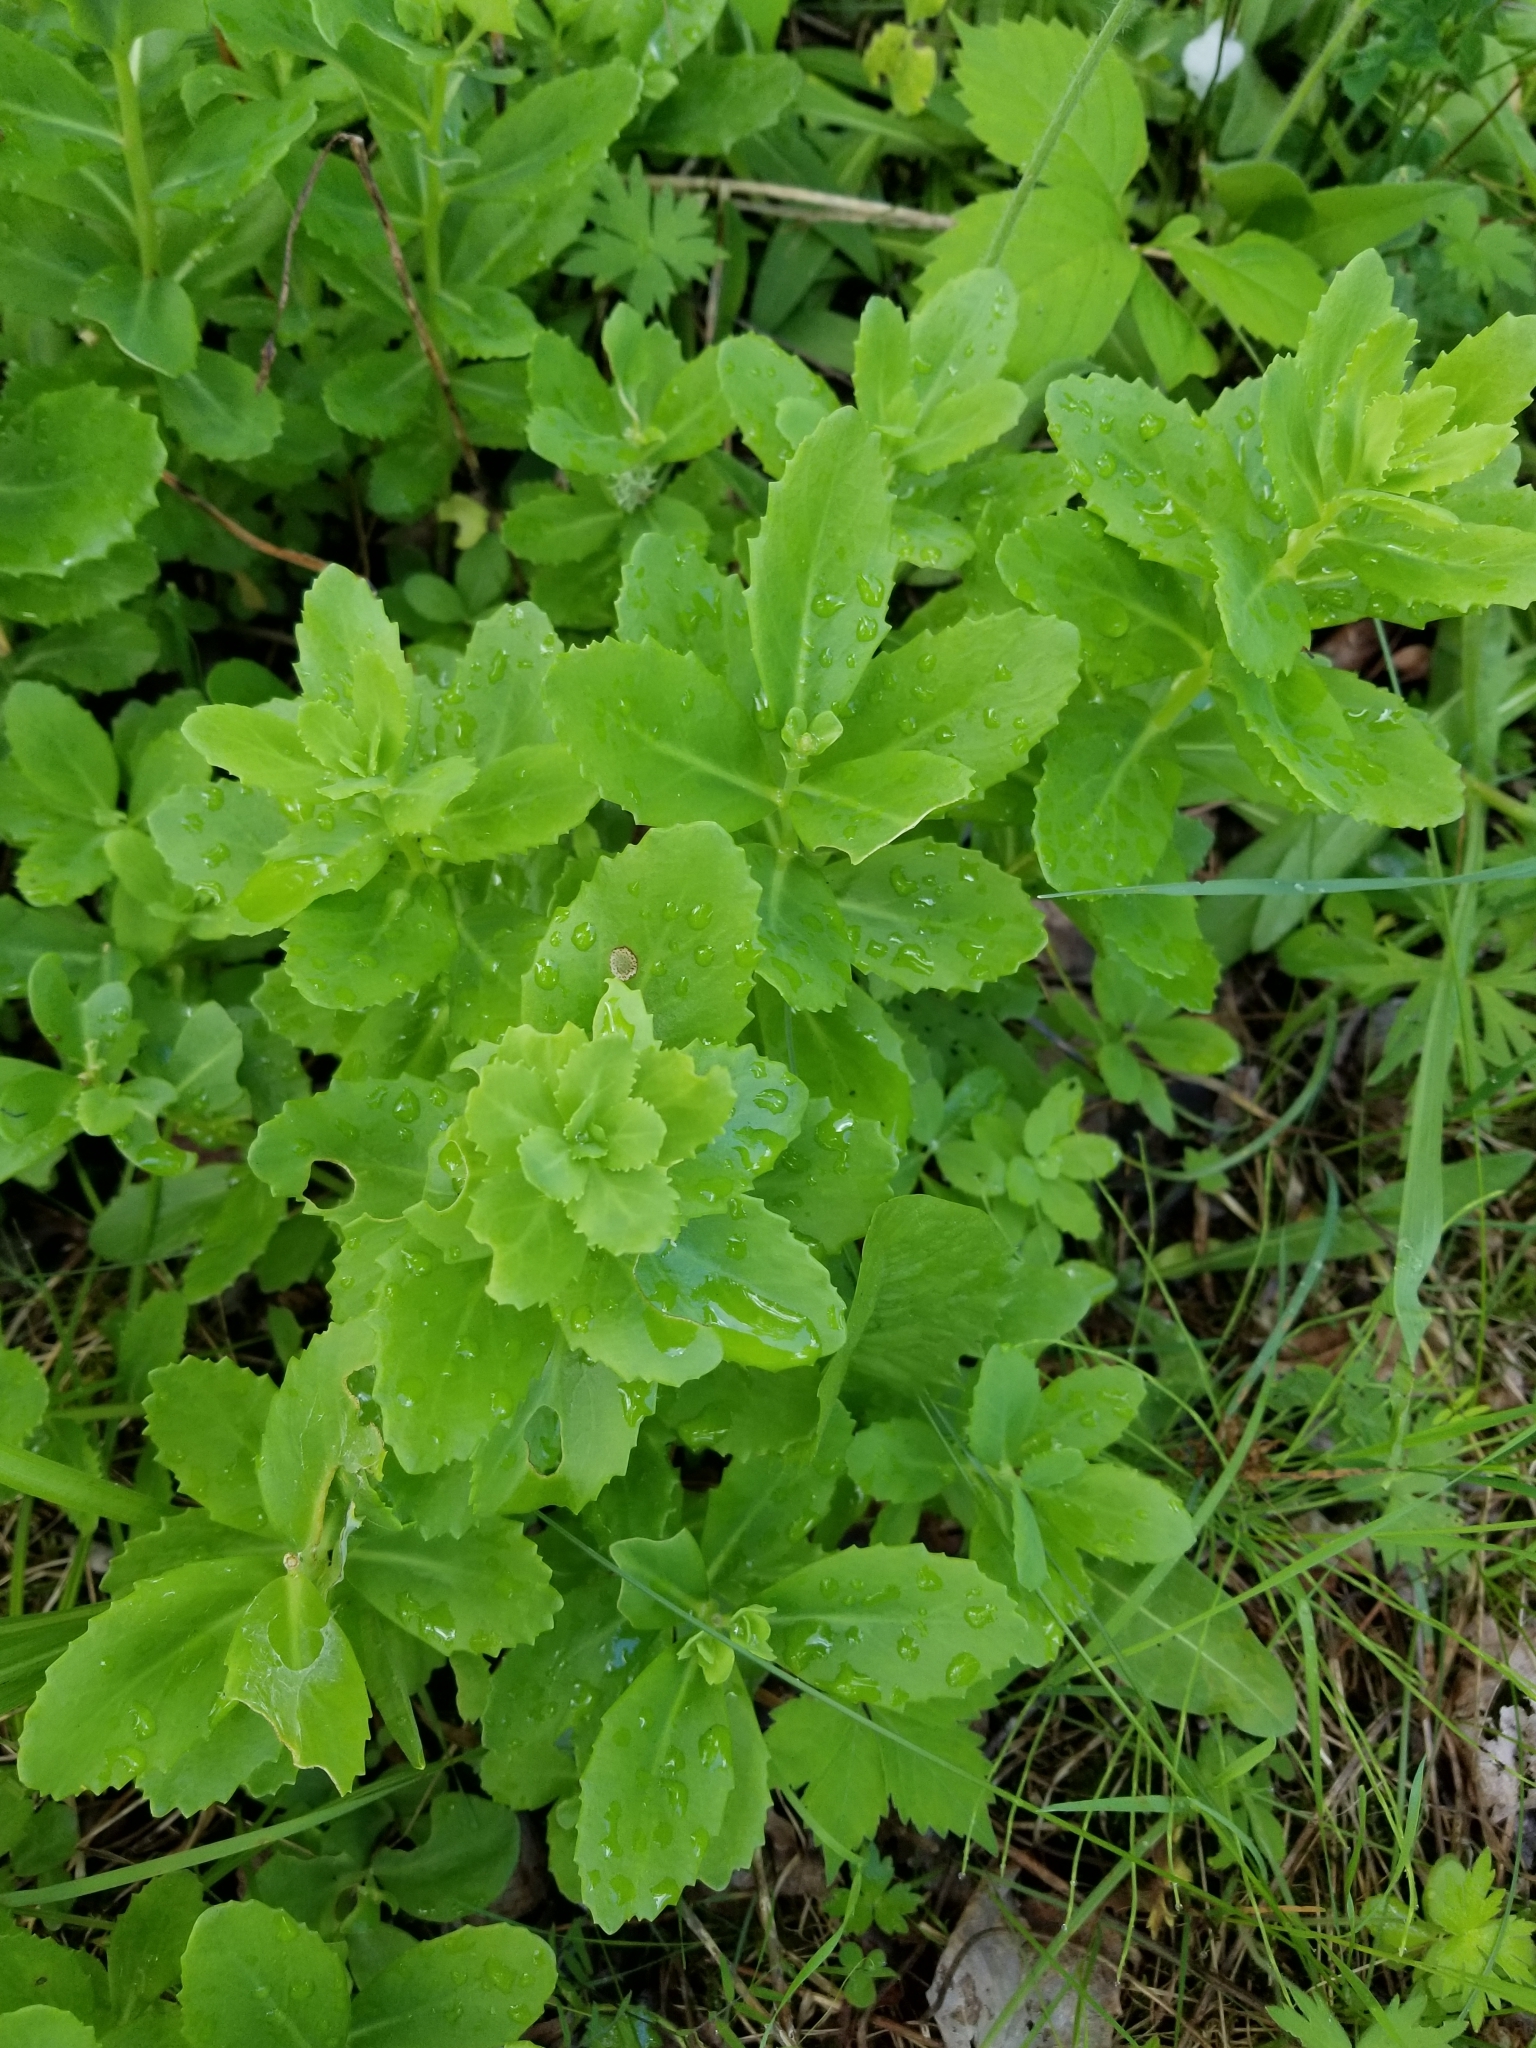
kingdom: Plantae
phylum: Tracheophyta
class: Magnoliopsida
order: Saxifragales
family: Crassulaceae
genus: Hylotelephium
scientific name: Hylotelephium telephium
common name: Live-forever
